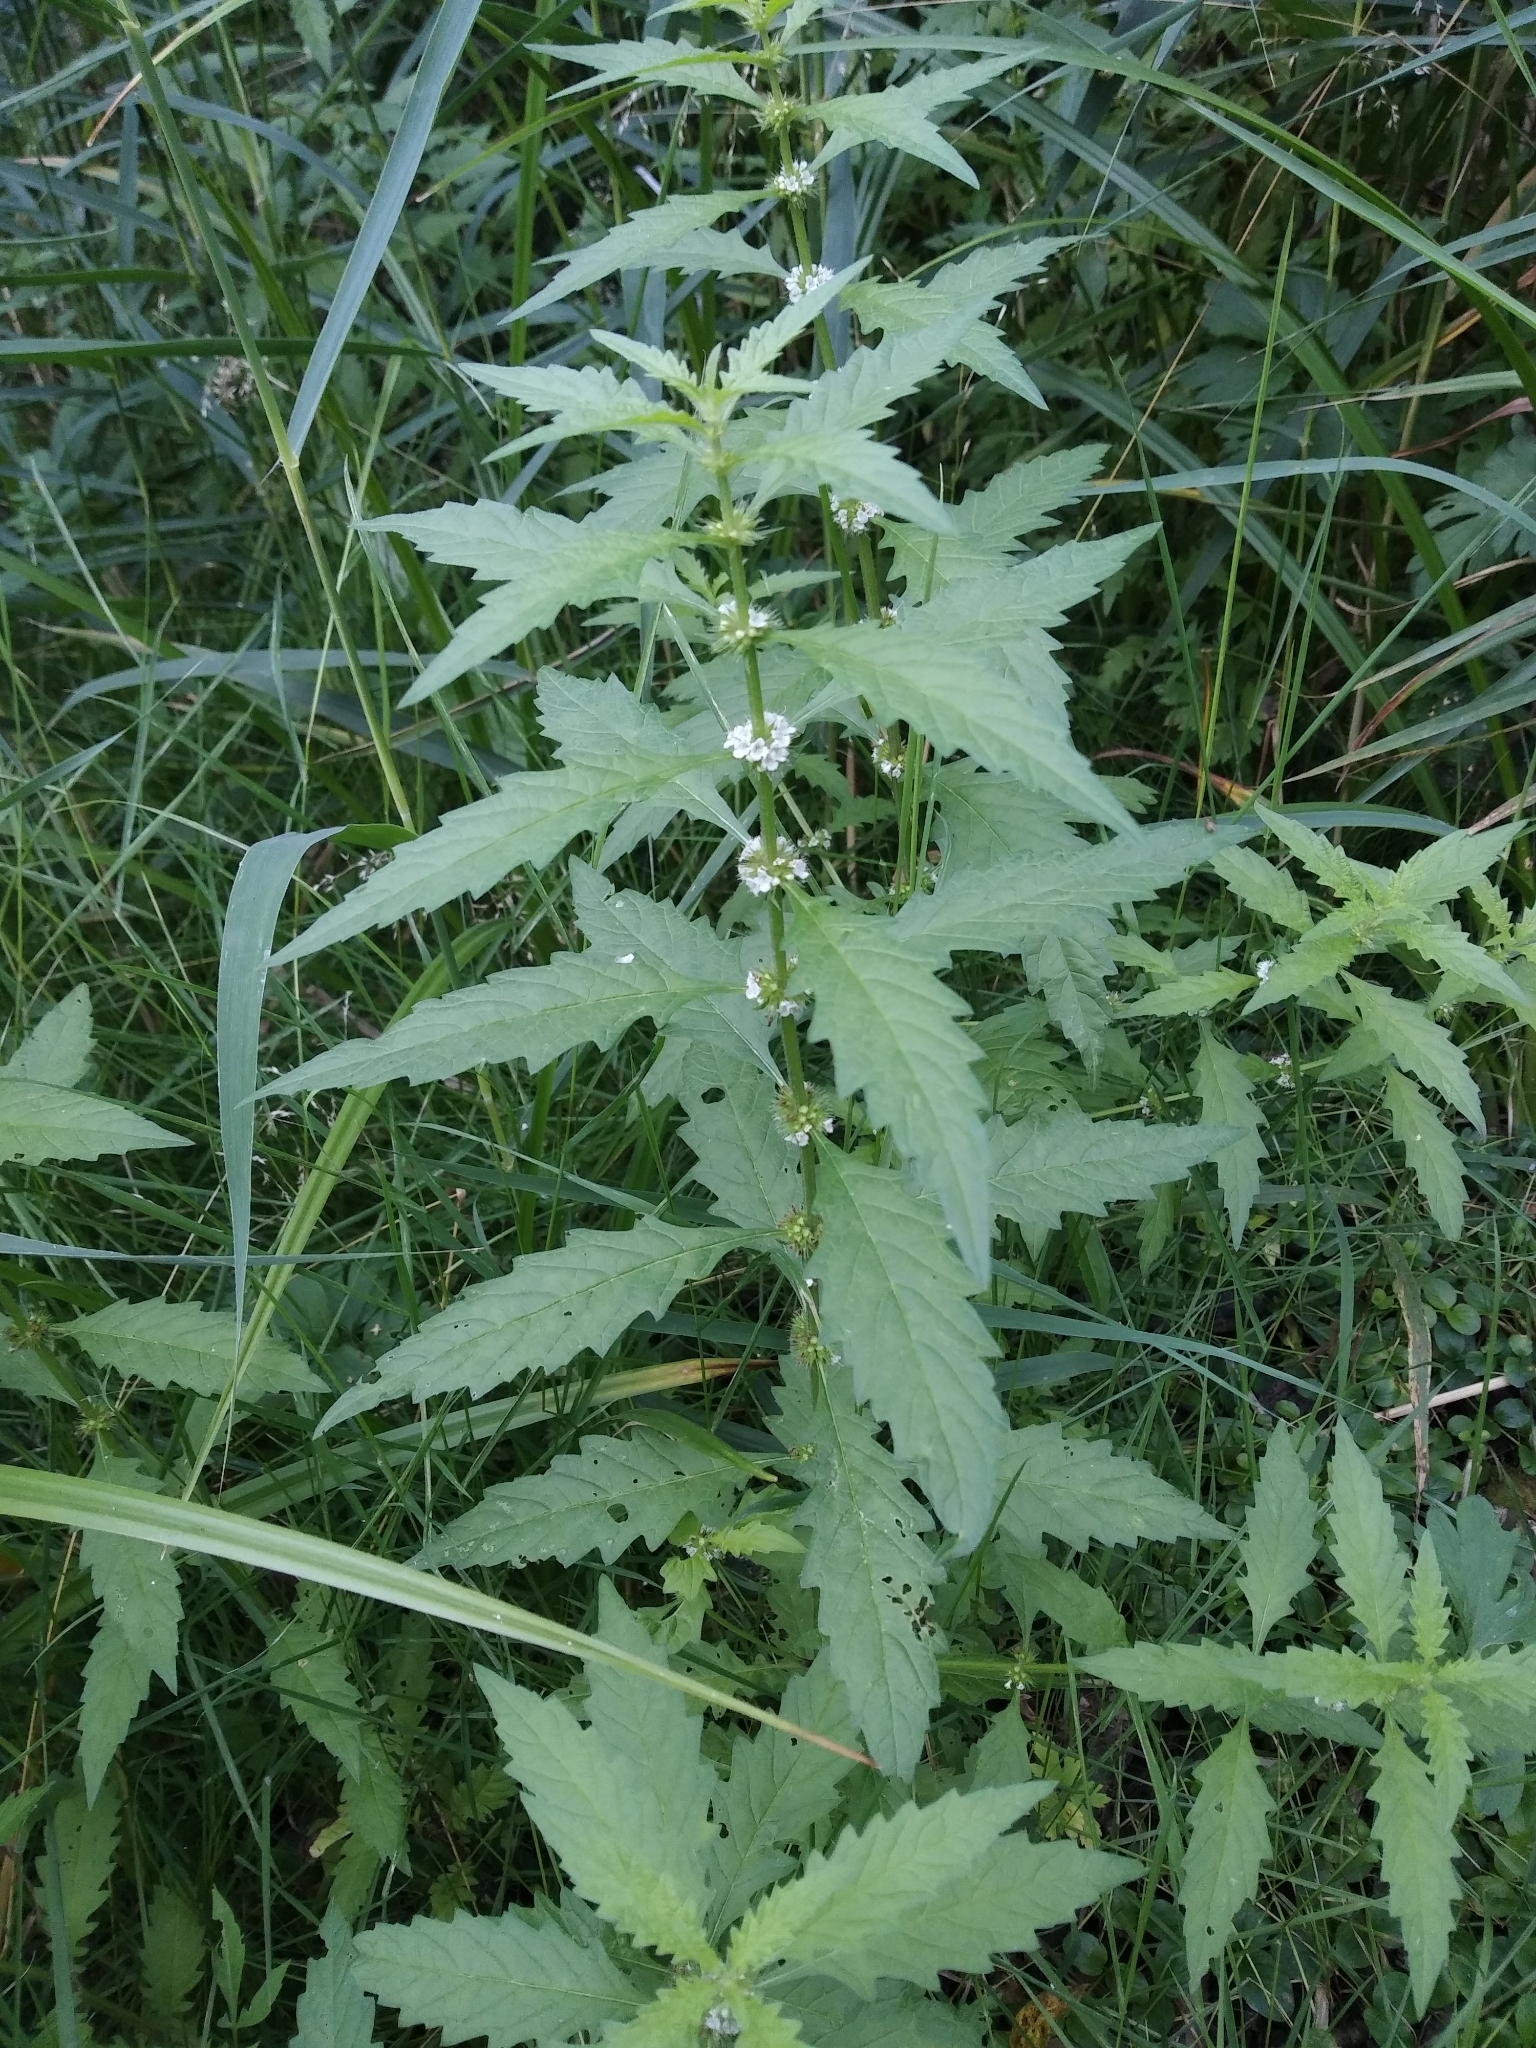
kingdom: Plantae
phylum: Tracheophyta
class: Magnoliopsida
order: Lamiales
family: Lamiaceae
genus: Lycopus
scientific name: Lycopus europaeus
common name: European bugleweed
